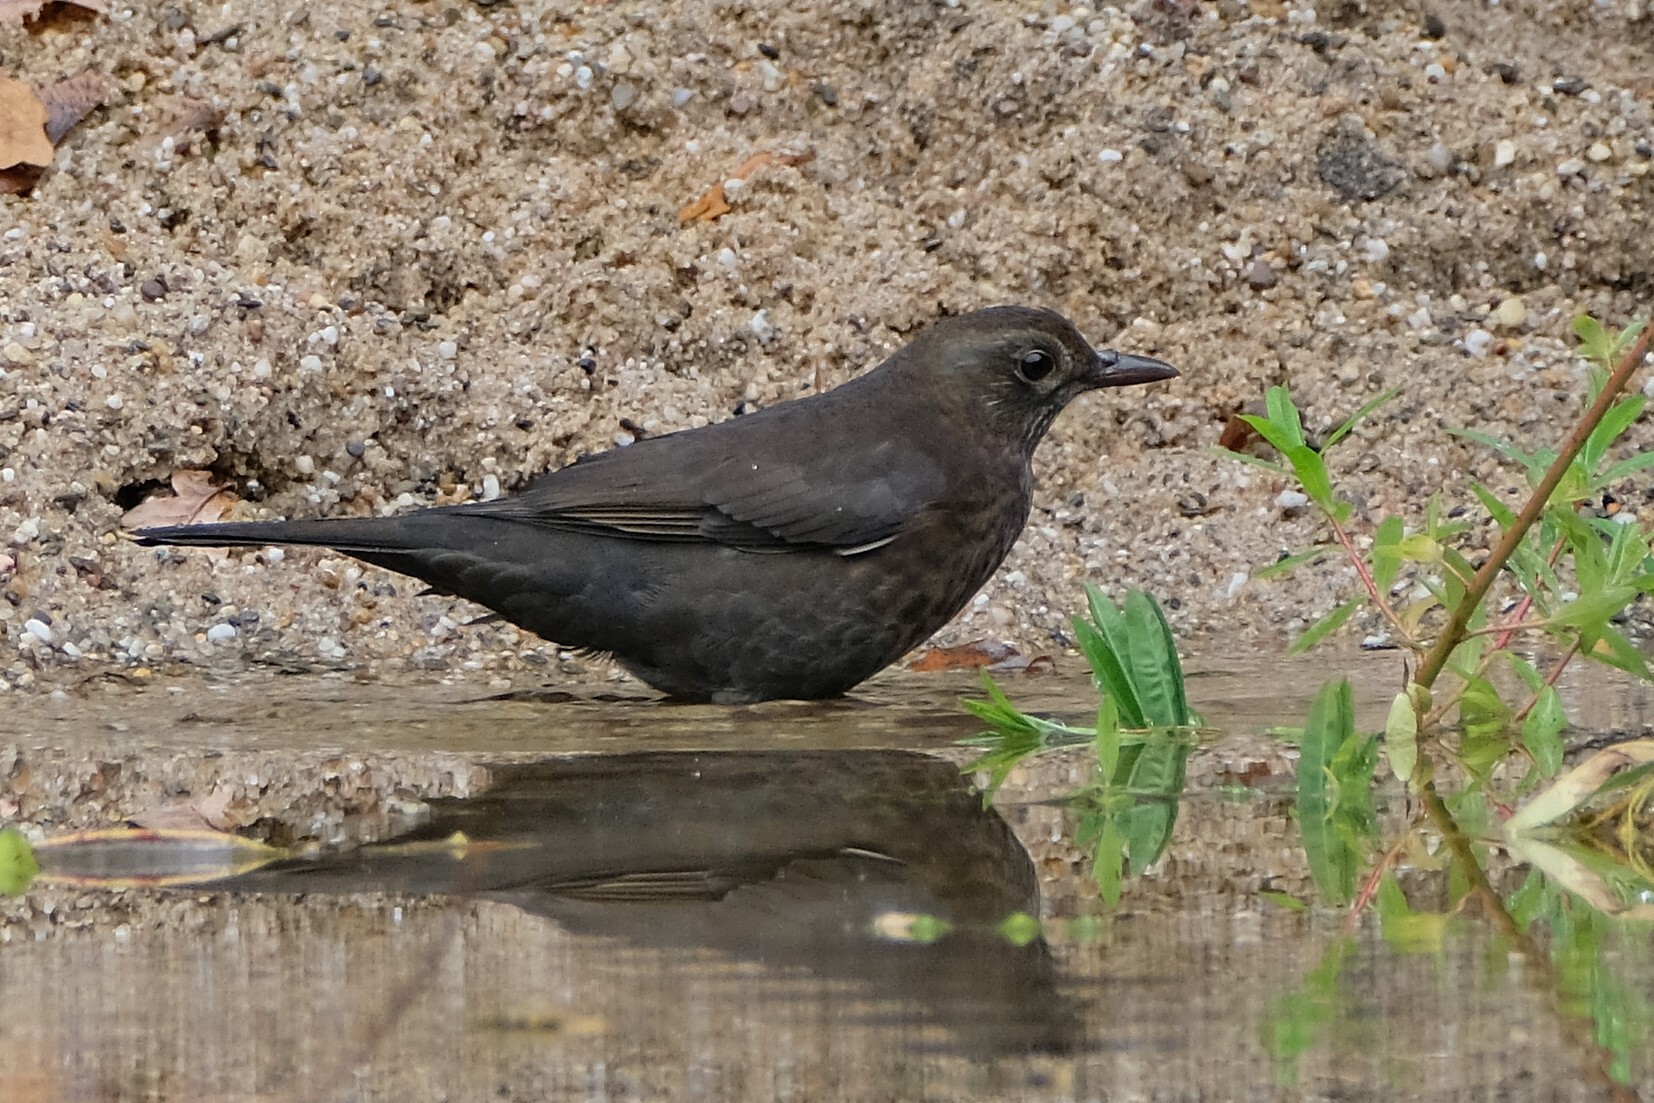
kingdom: Animalia
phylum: Chordata
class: Aves
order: Passeriformes
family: Turdidae
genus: Turdus
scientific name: Turdus merula
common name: Common blackbird
